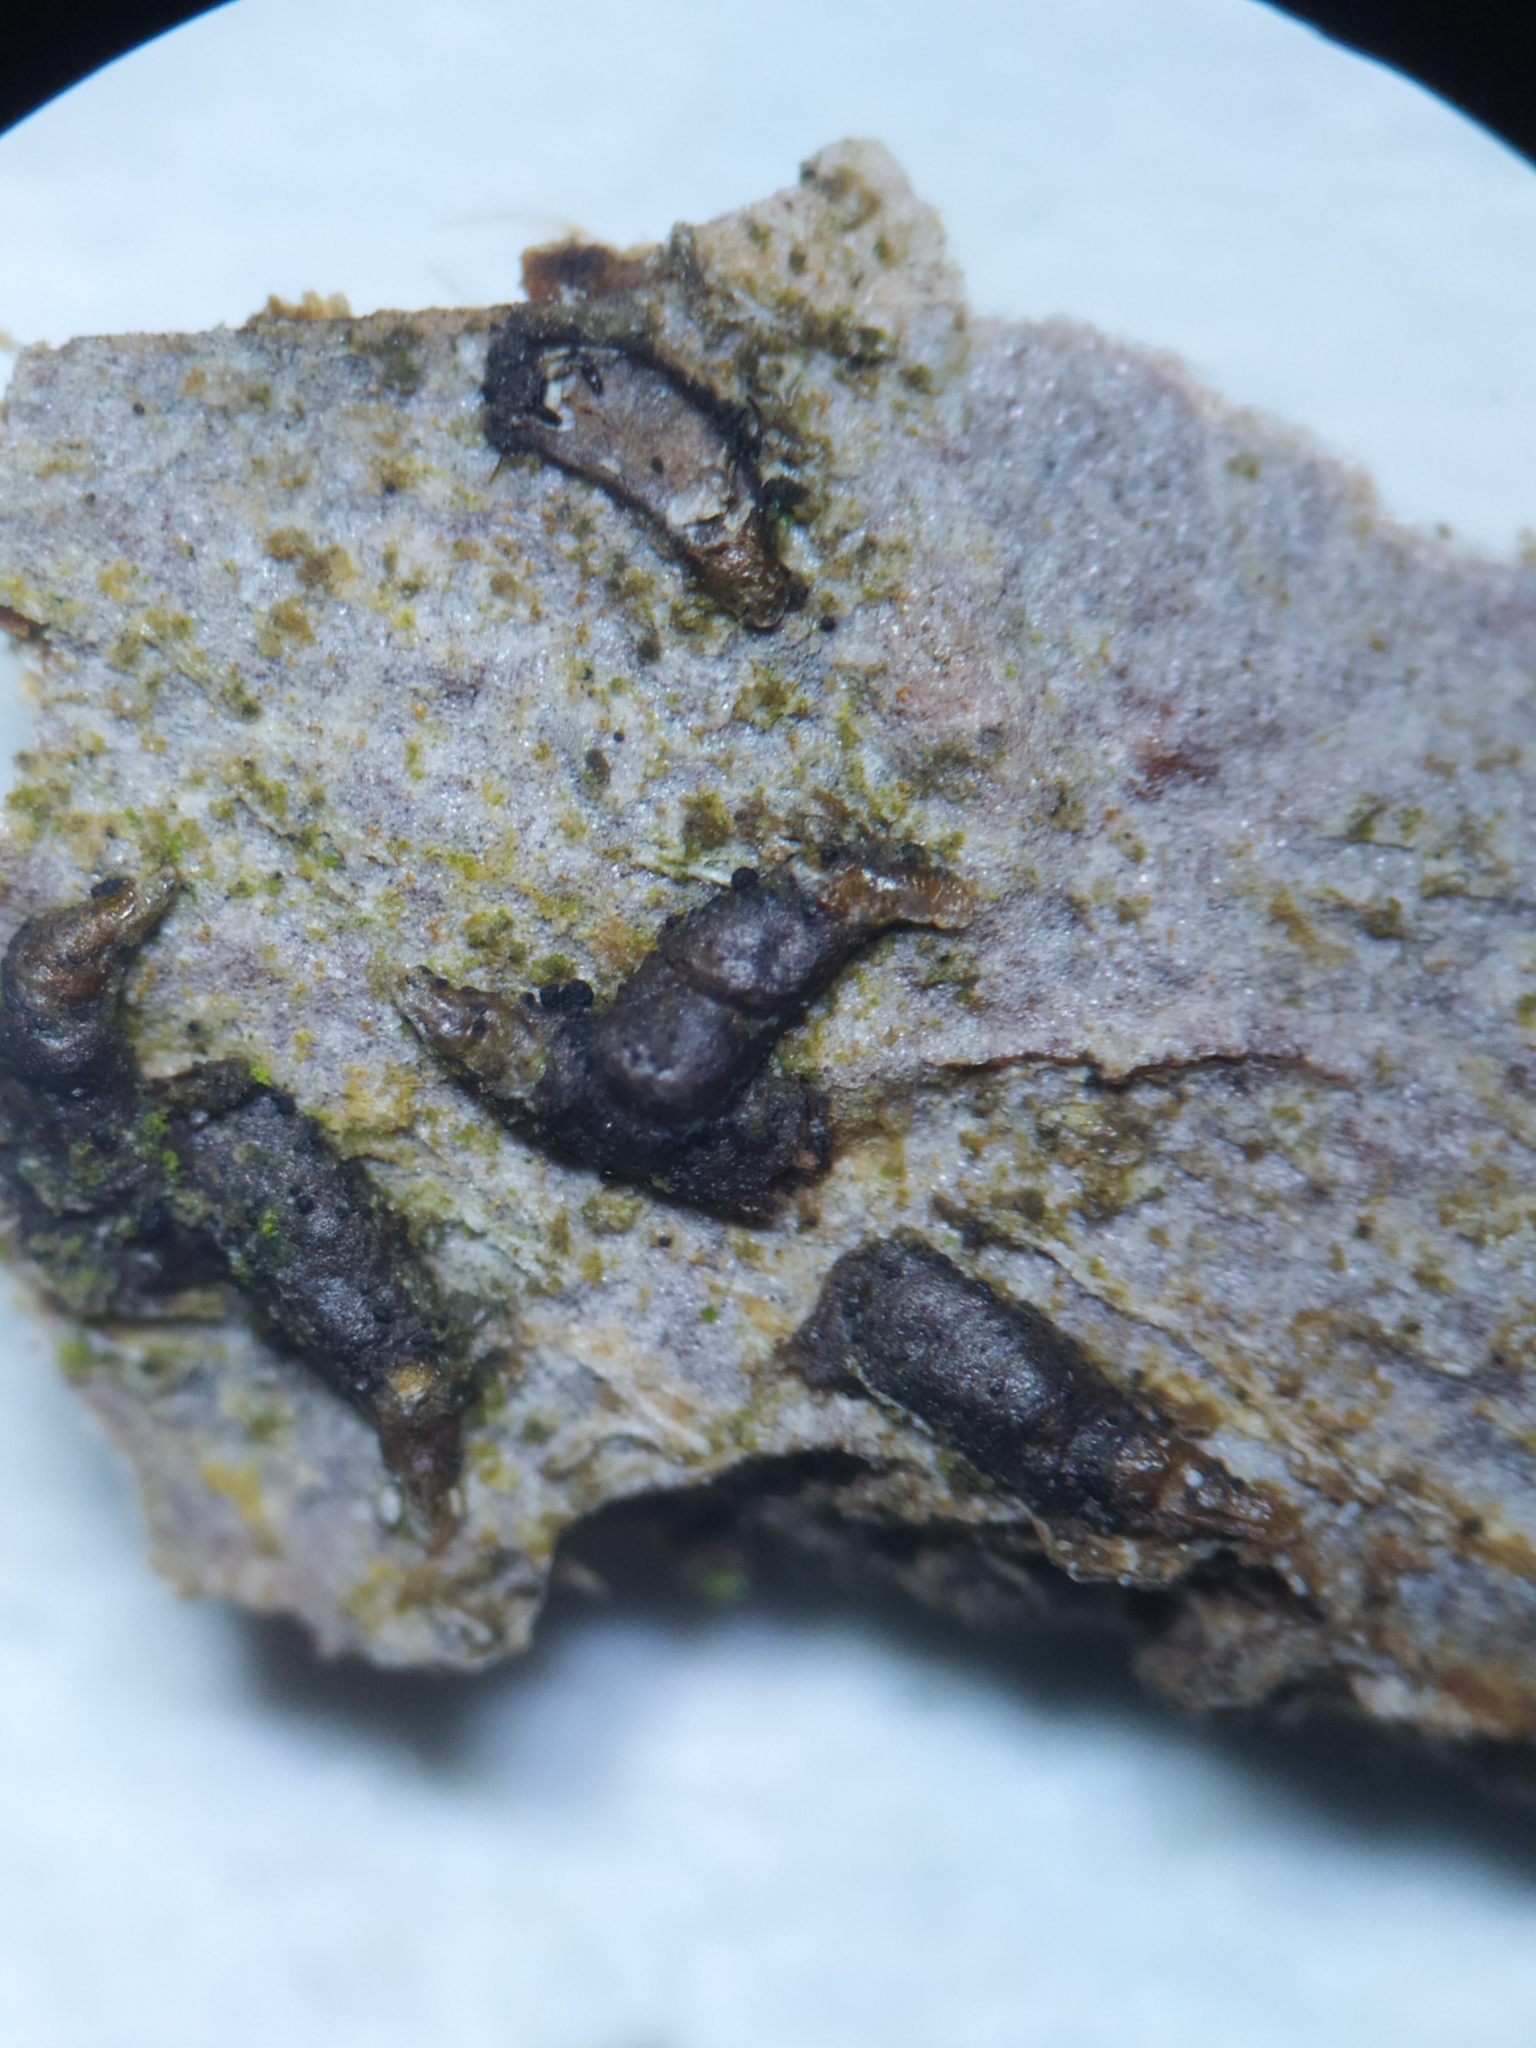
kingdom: Animalia
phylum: Arthropoda
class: Insecta
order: Hemiptera
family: Diaspididae
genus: Lepidosaphes
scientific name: Lepidosaphes ulmi
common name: Oystershell scale
